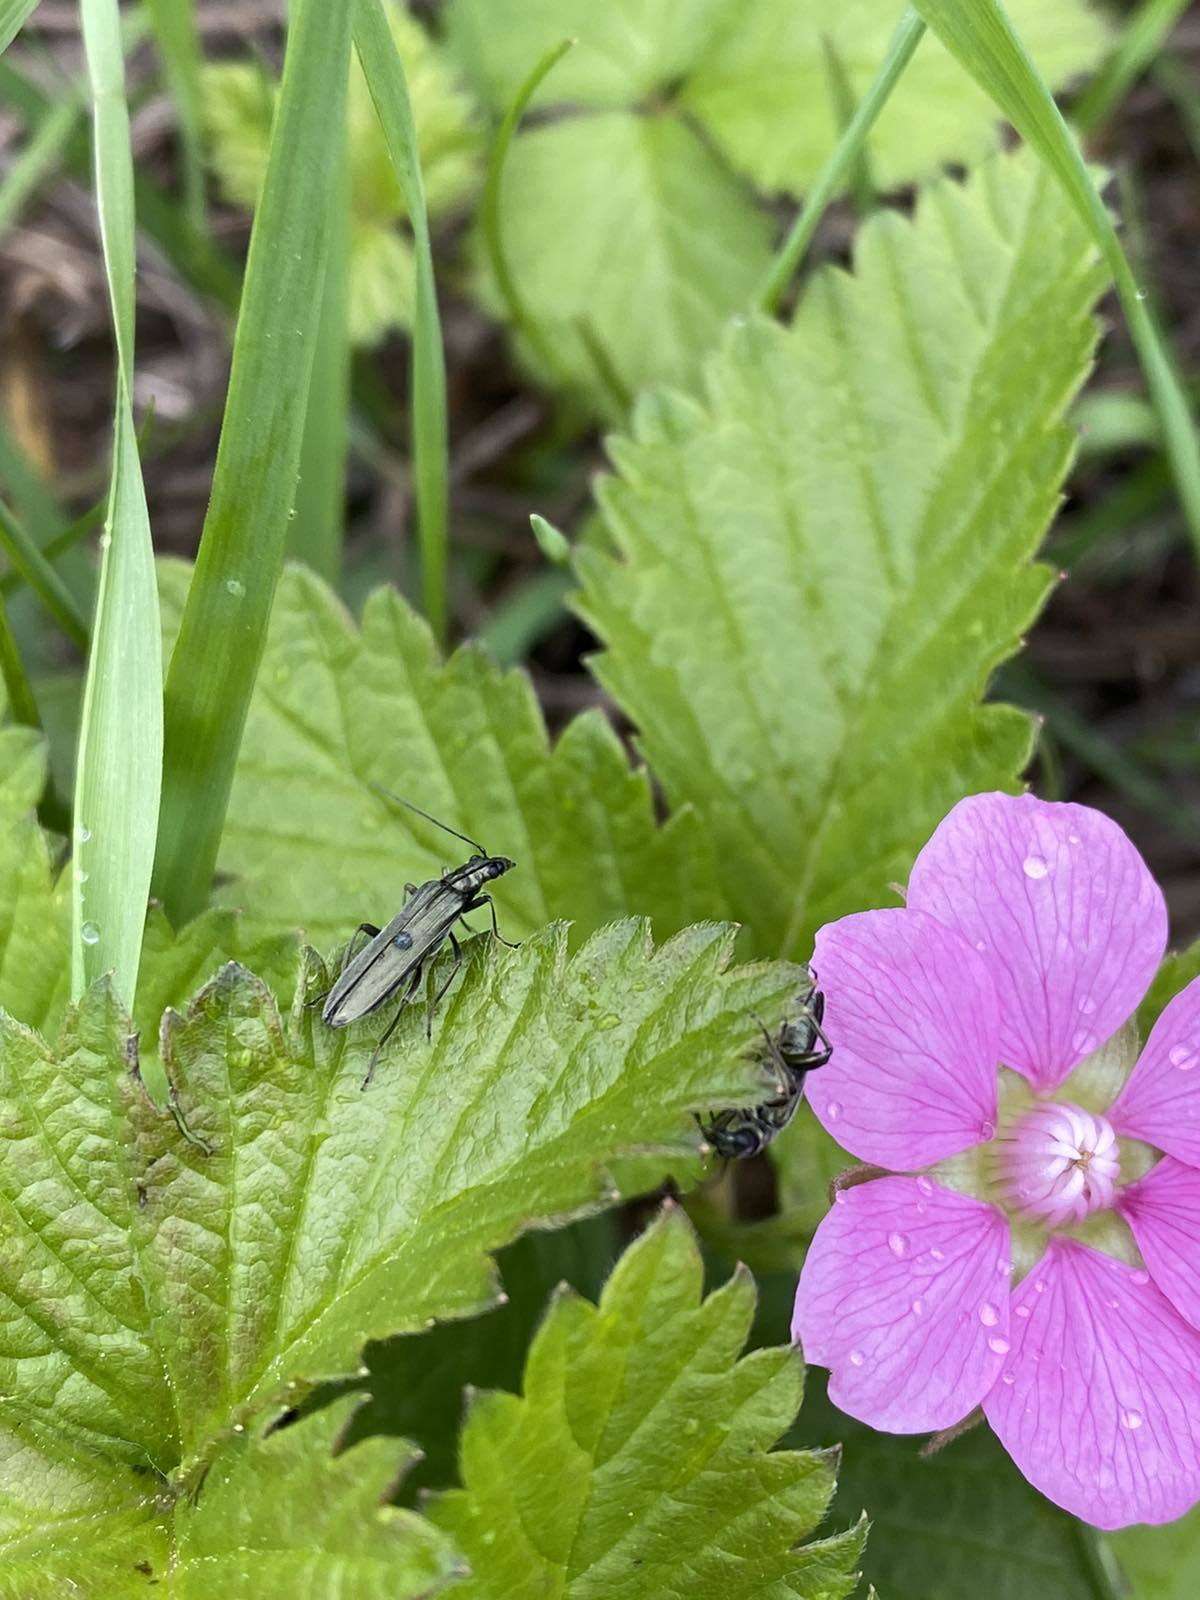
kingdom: Animalia
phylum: Arthropoda
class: Insecta
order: Coleoptera
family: Oedemeridae
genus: Oedemera
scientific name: Oedemera virescens
